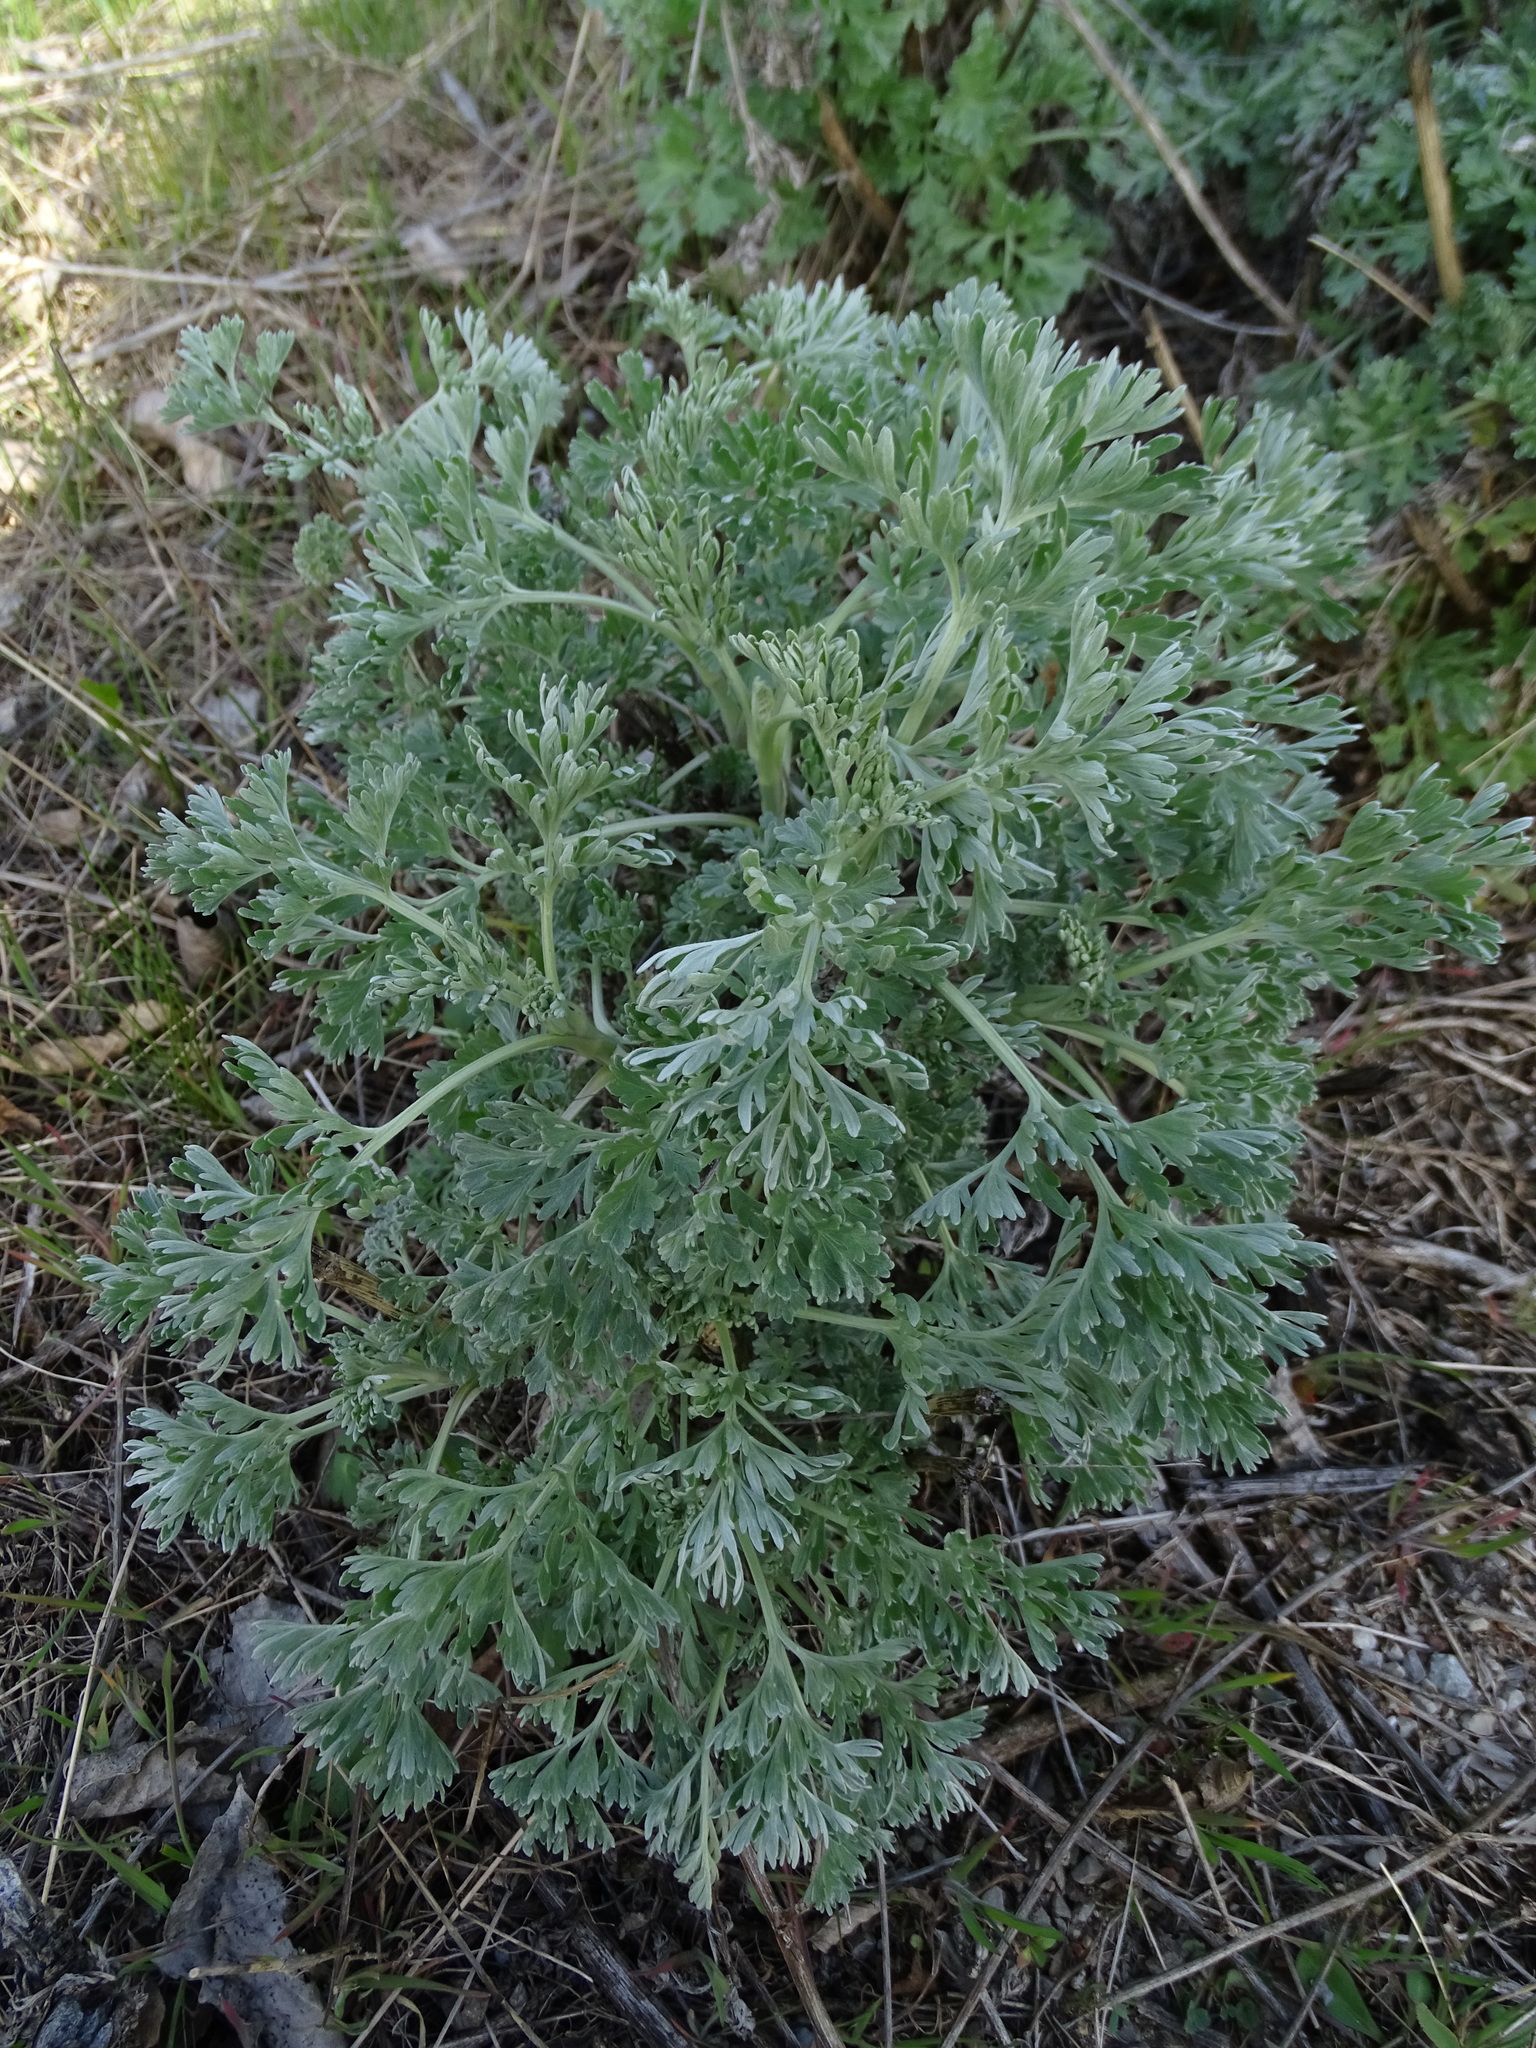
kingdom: Plantae
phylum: Tracheophyta
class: Magnoliopsida
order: Asterales
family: Asteraceae
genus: Artemisia
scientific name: Artemisia absinthium
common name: Wormwood
